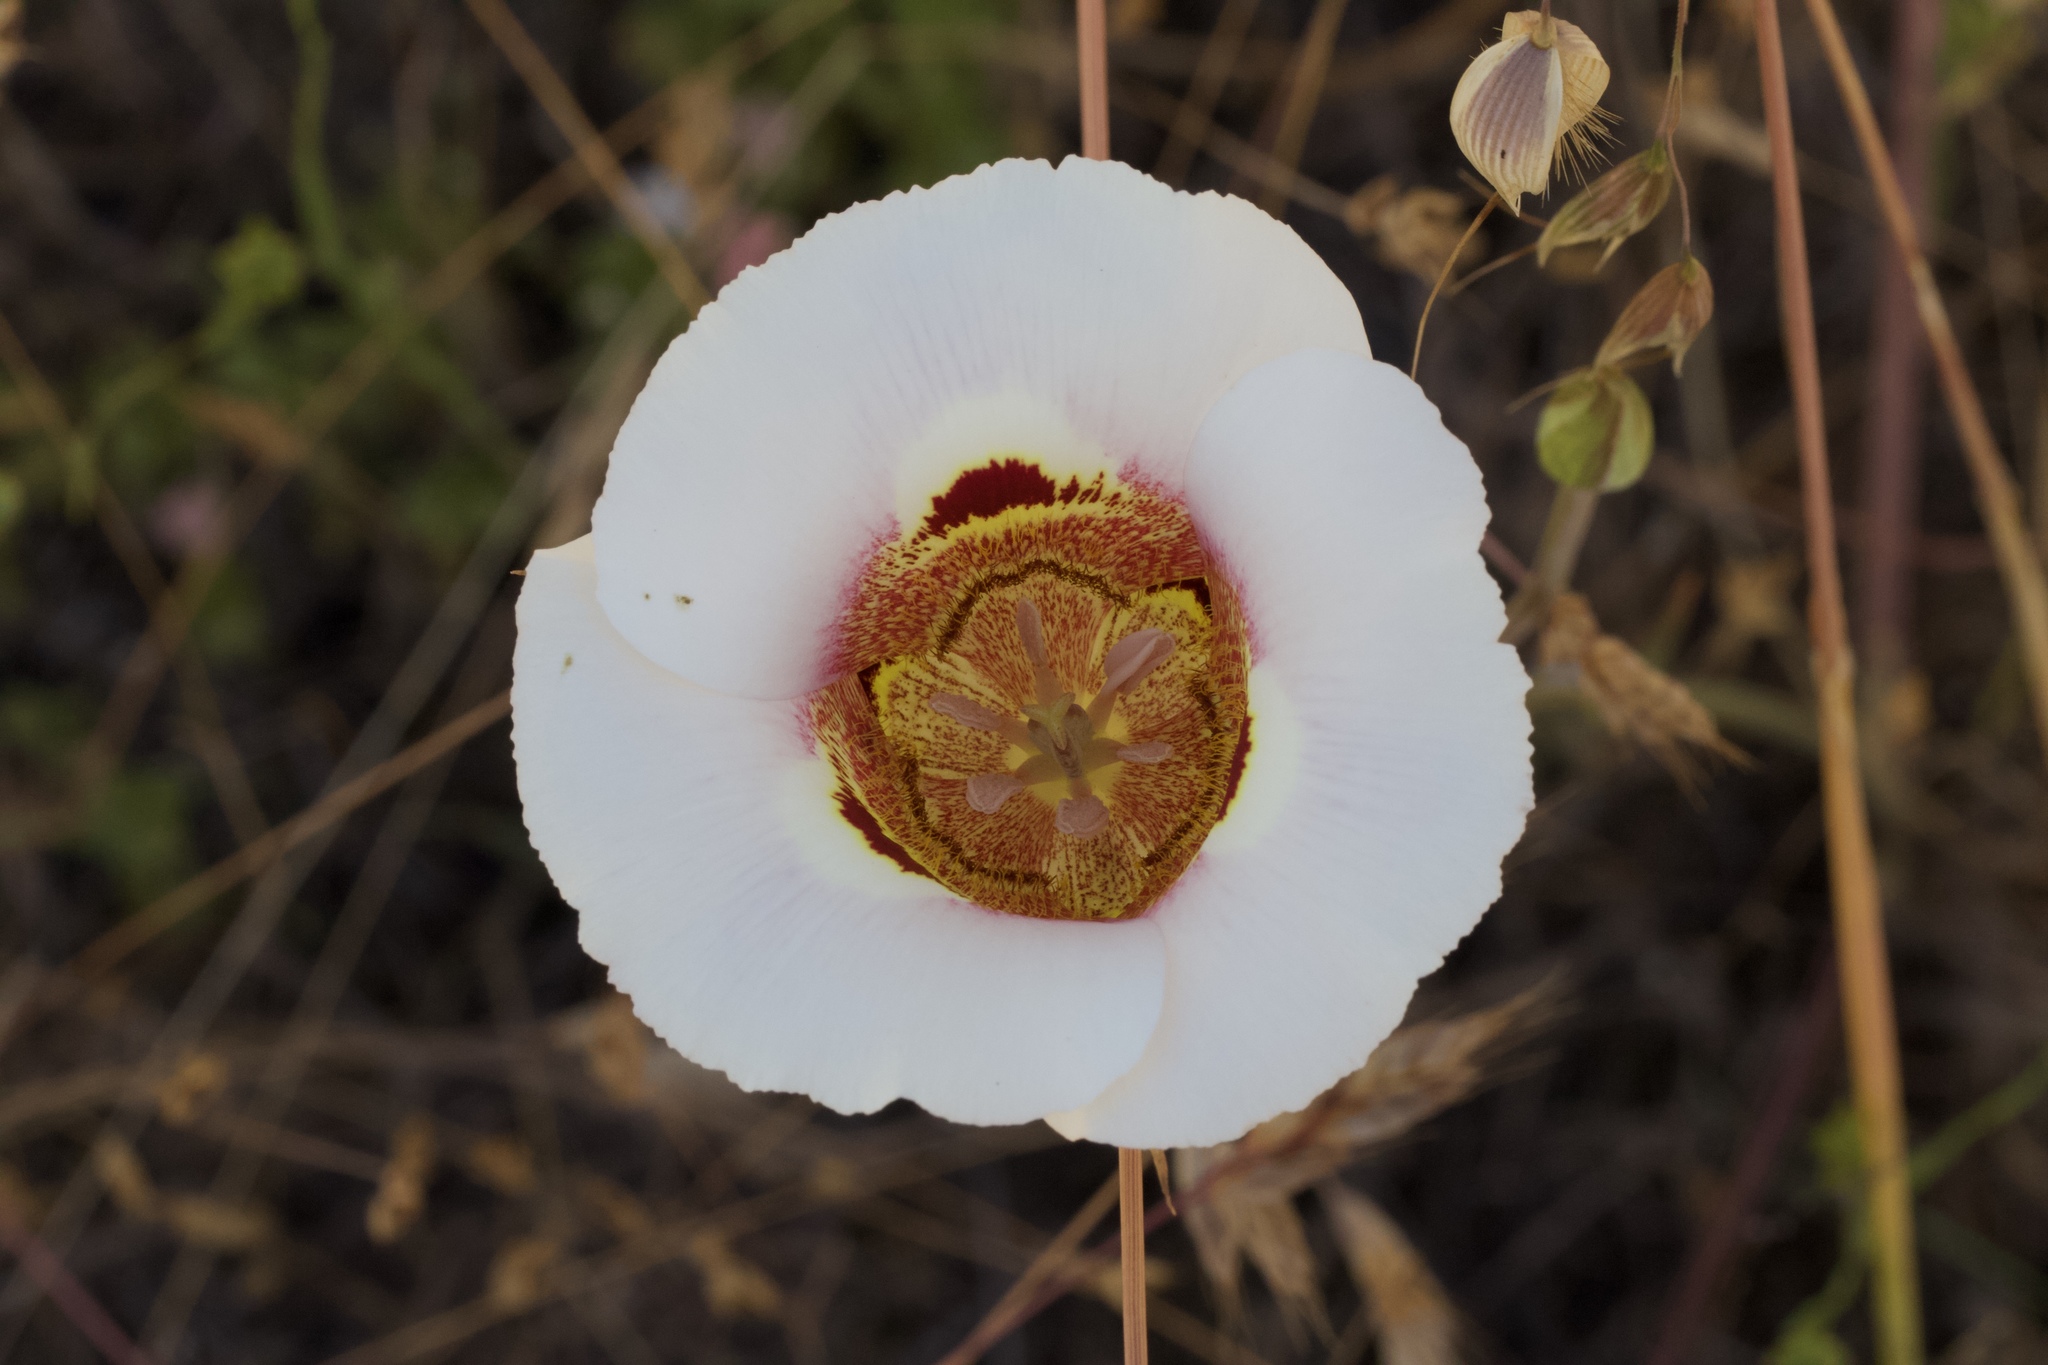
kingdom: Plantae
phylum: Tracheophyta
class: Liliopsida
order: Liliales
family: Liliaceae
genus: Calochortus
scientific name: Calochortus vestae
